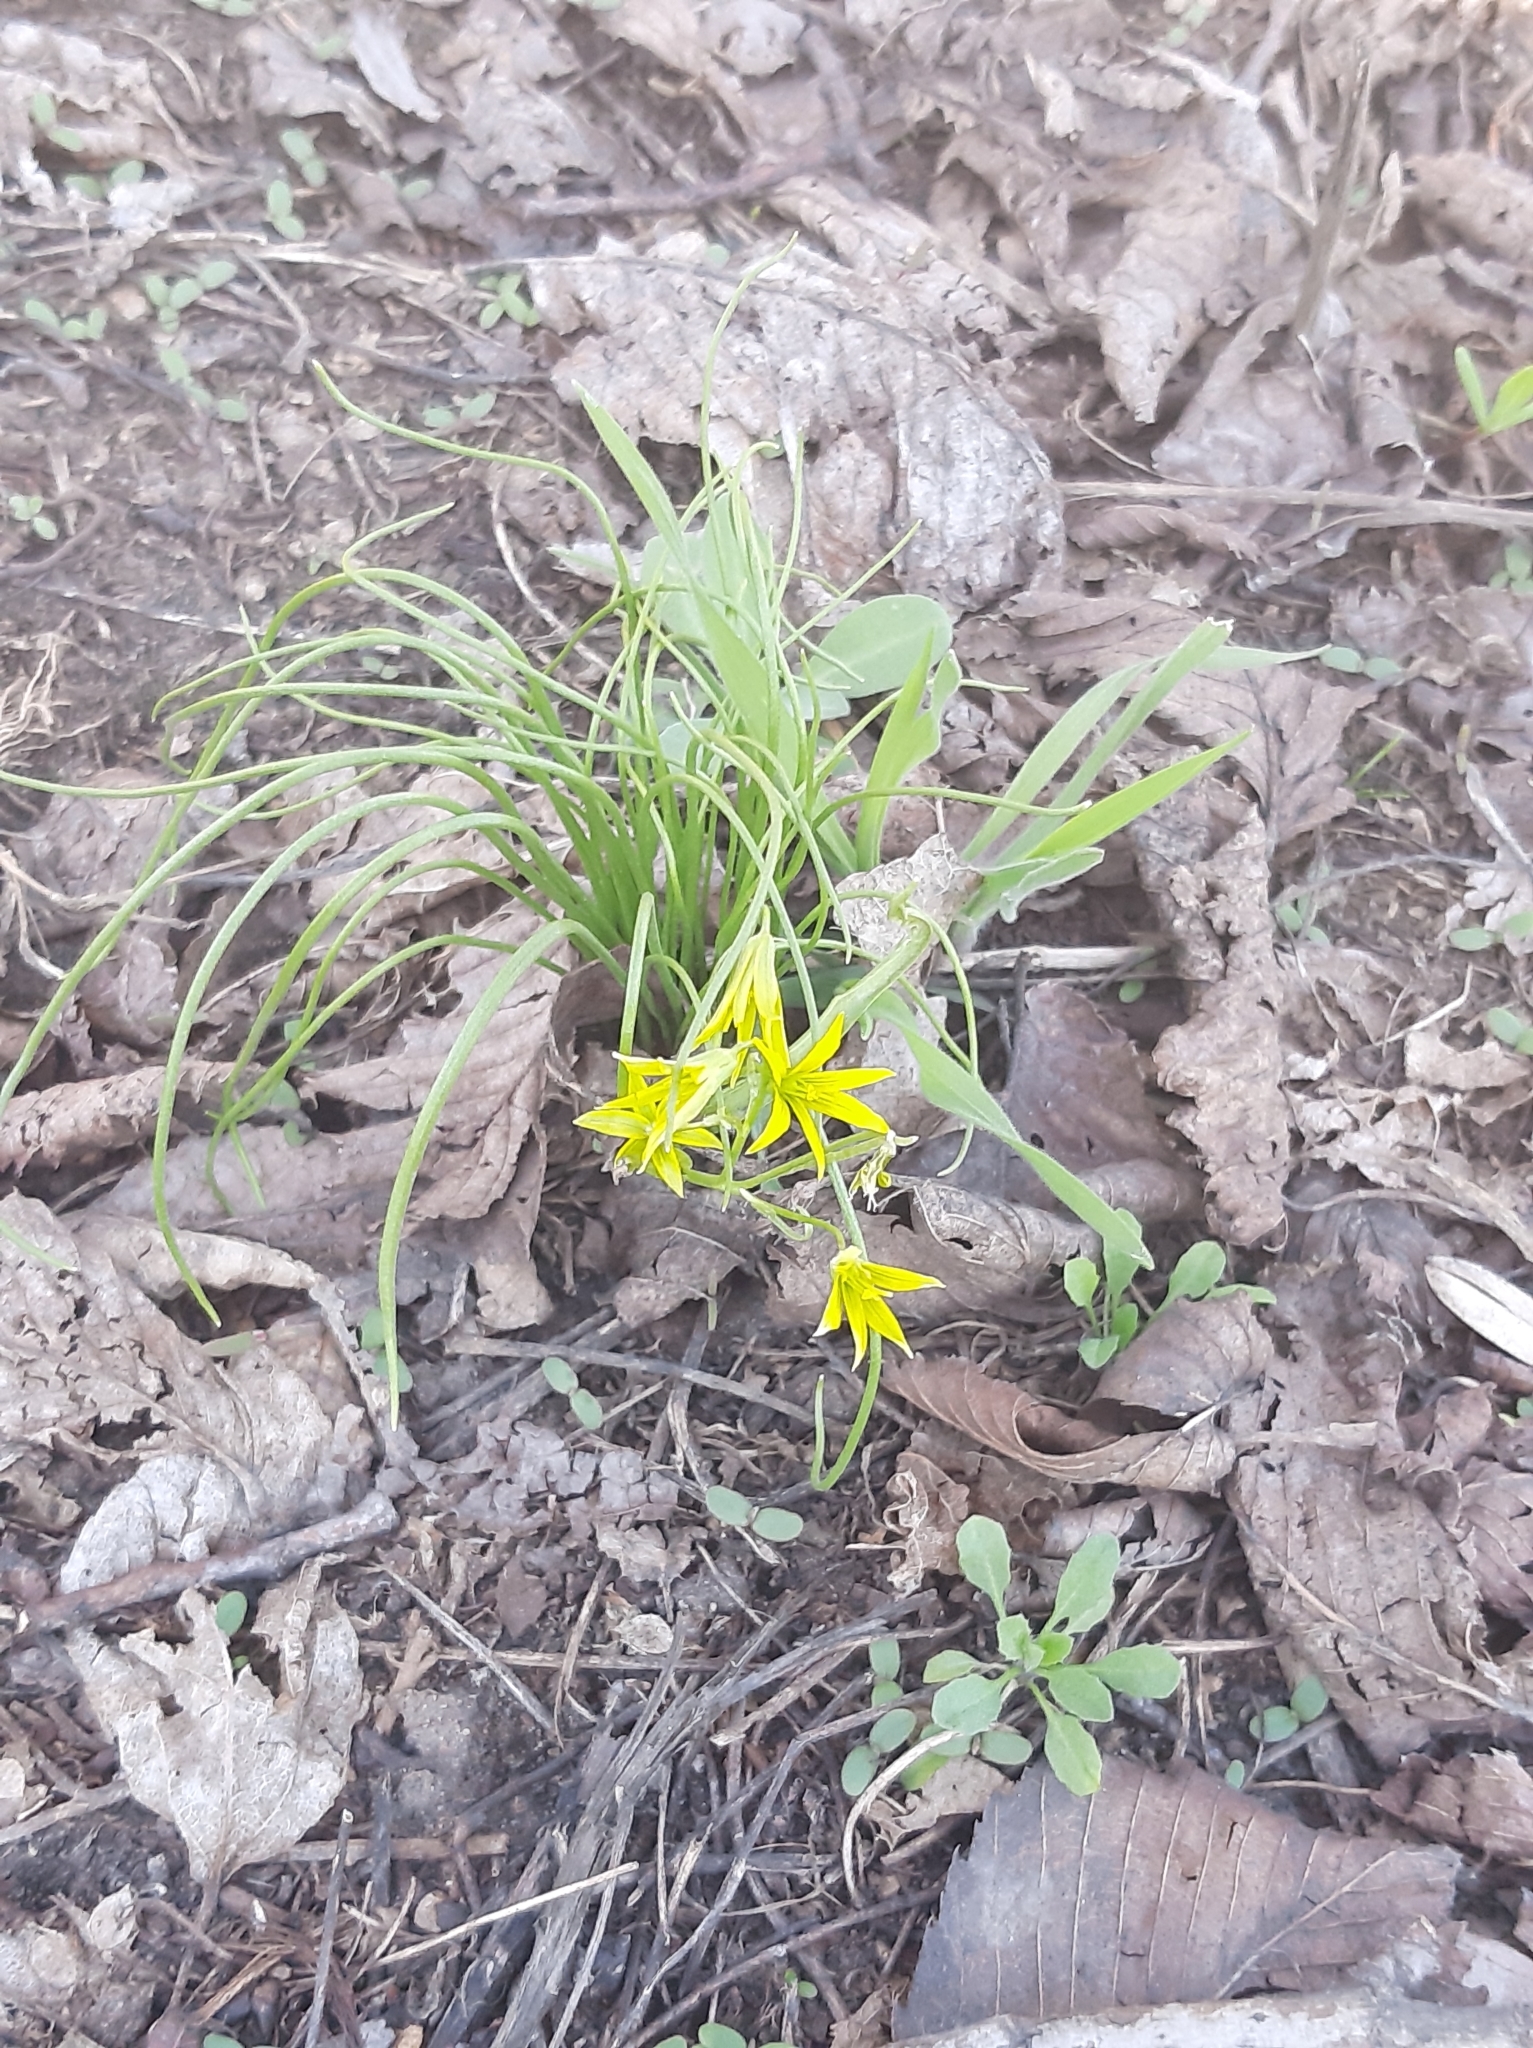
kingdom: Plantae
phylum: Tracheophyta
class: Liliopsida
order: Liliales
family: Liliaceae
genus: Gagea
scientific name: Gagea minima
